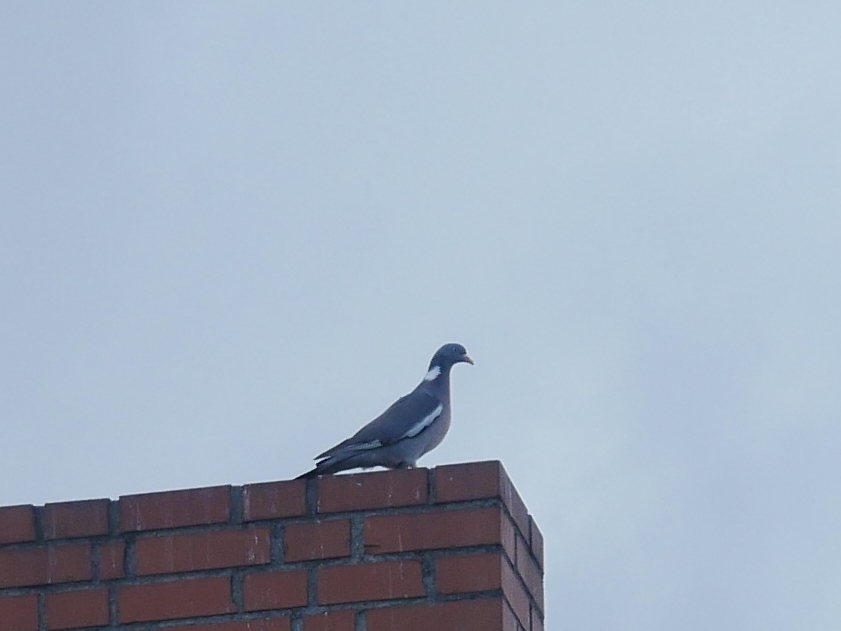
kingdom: Animalia
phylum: Chordata
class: Aves
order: Columbiformes
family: Columbidae
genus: Columba
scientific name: Columba palumbus
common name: Common wood pigeon
